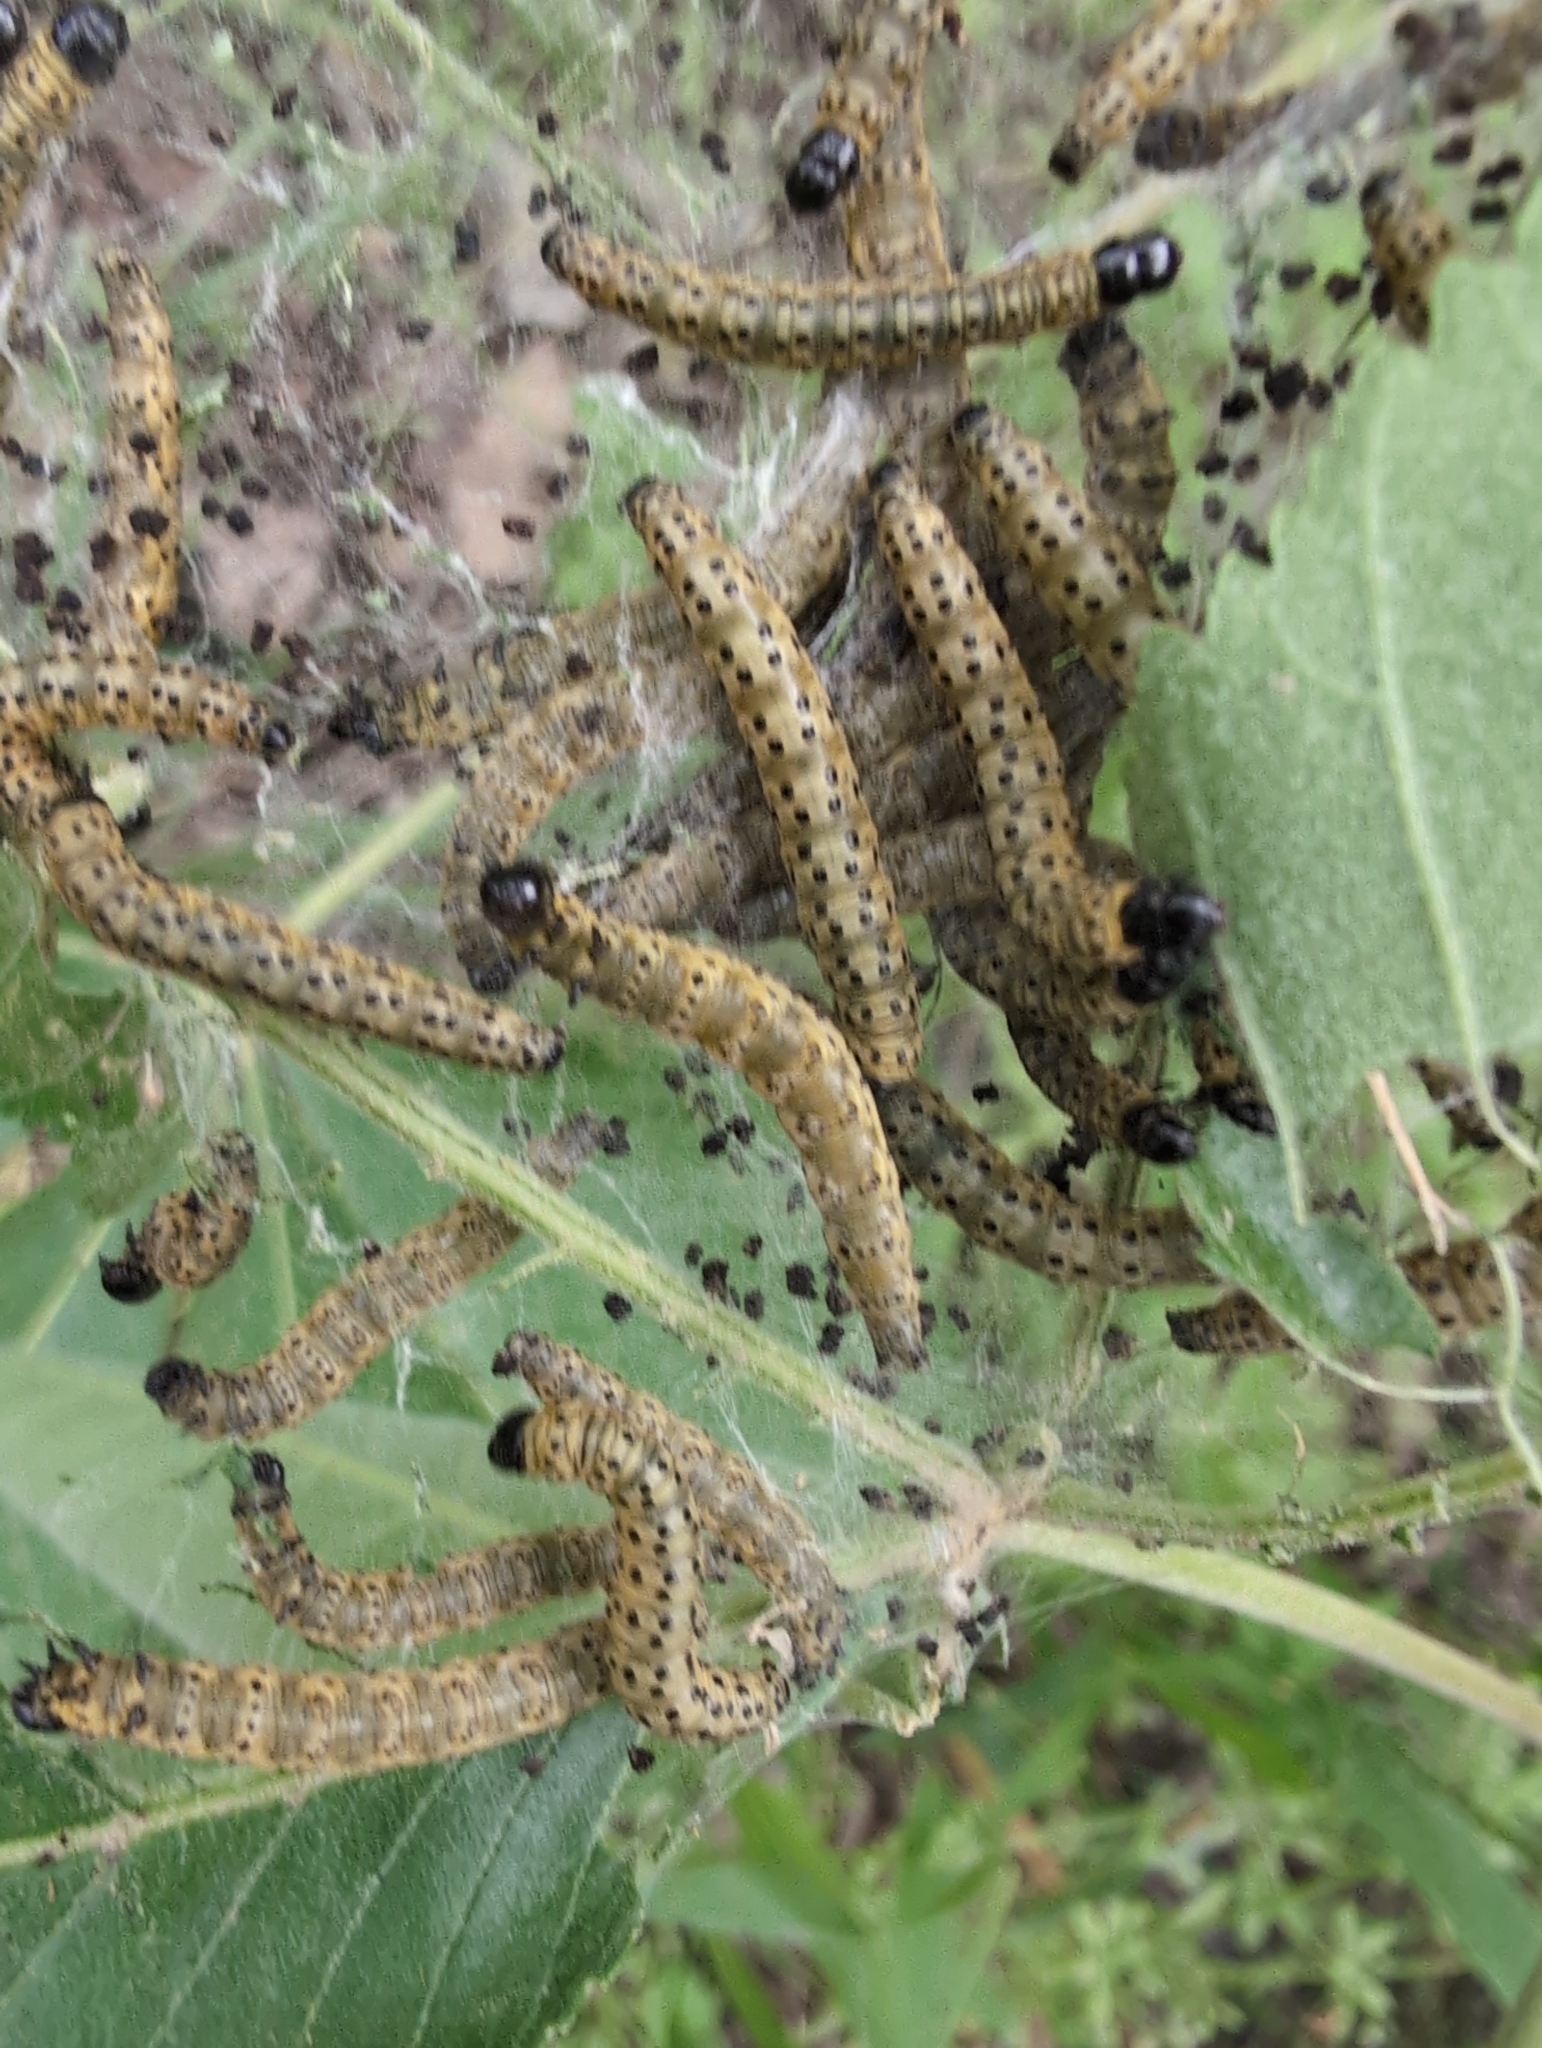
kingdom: Animalia
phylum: Arthropoda
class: Insecta
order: Lepidoptera
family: Tortricidae
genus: Archips
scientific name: Archips rileyana
